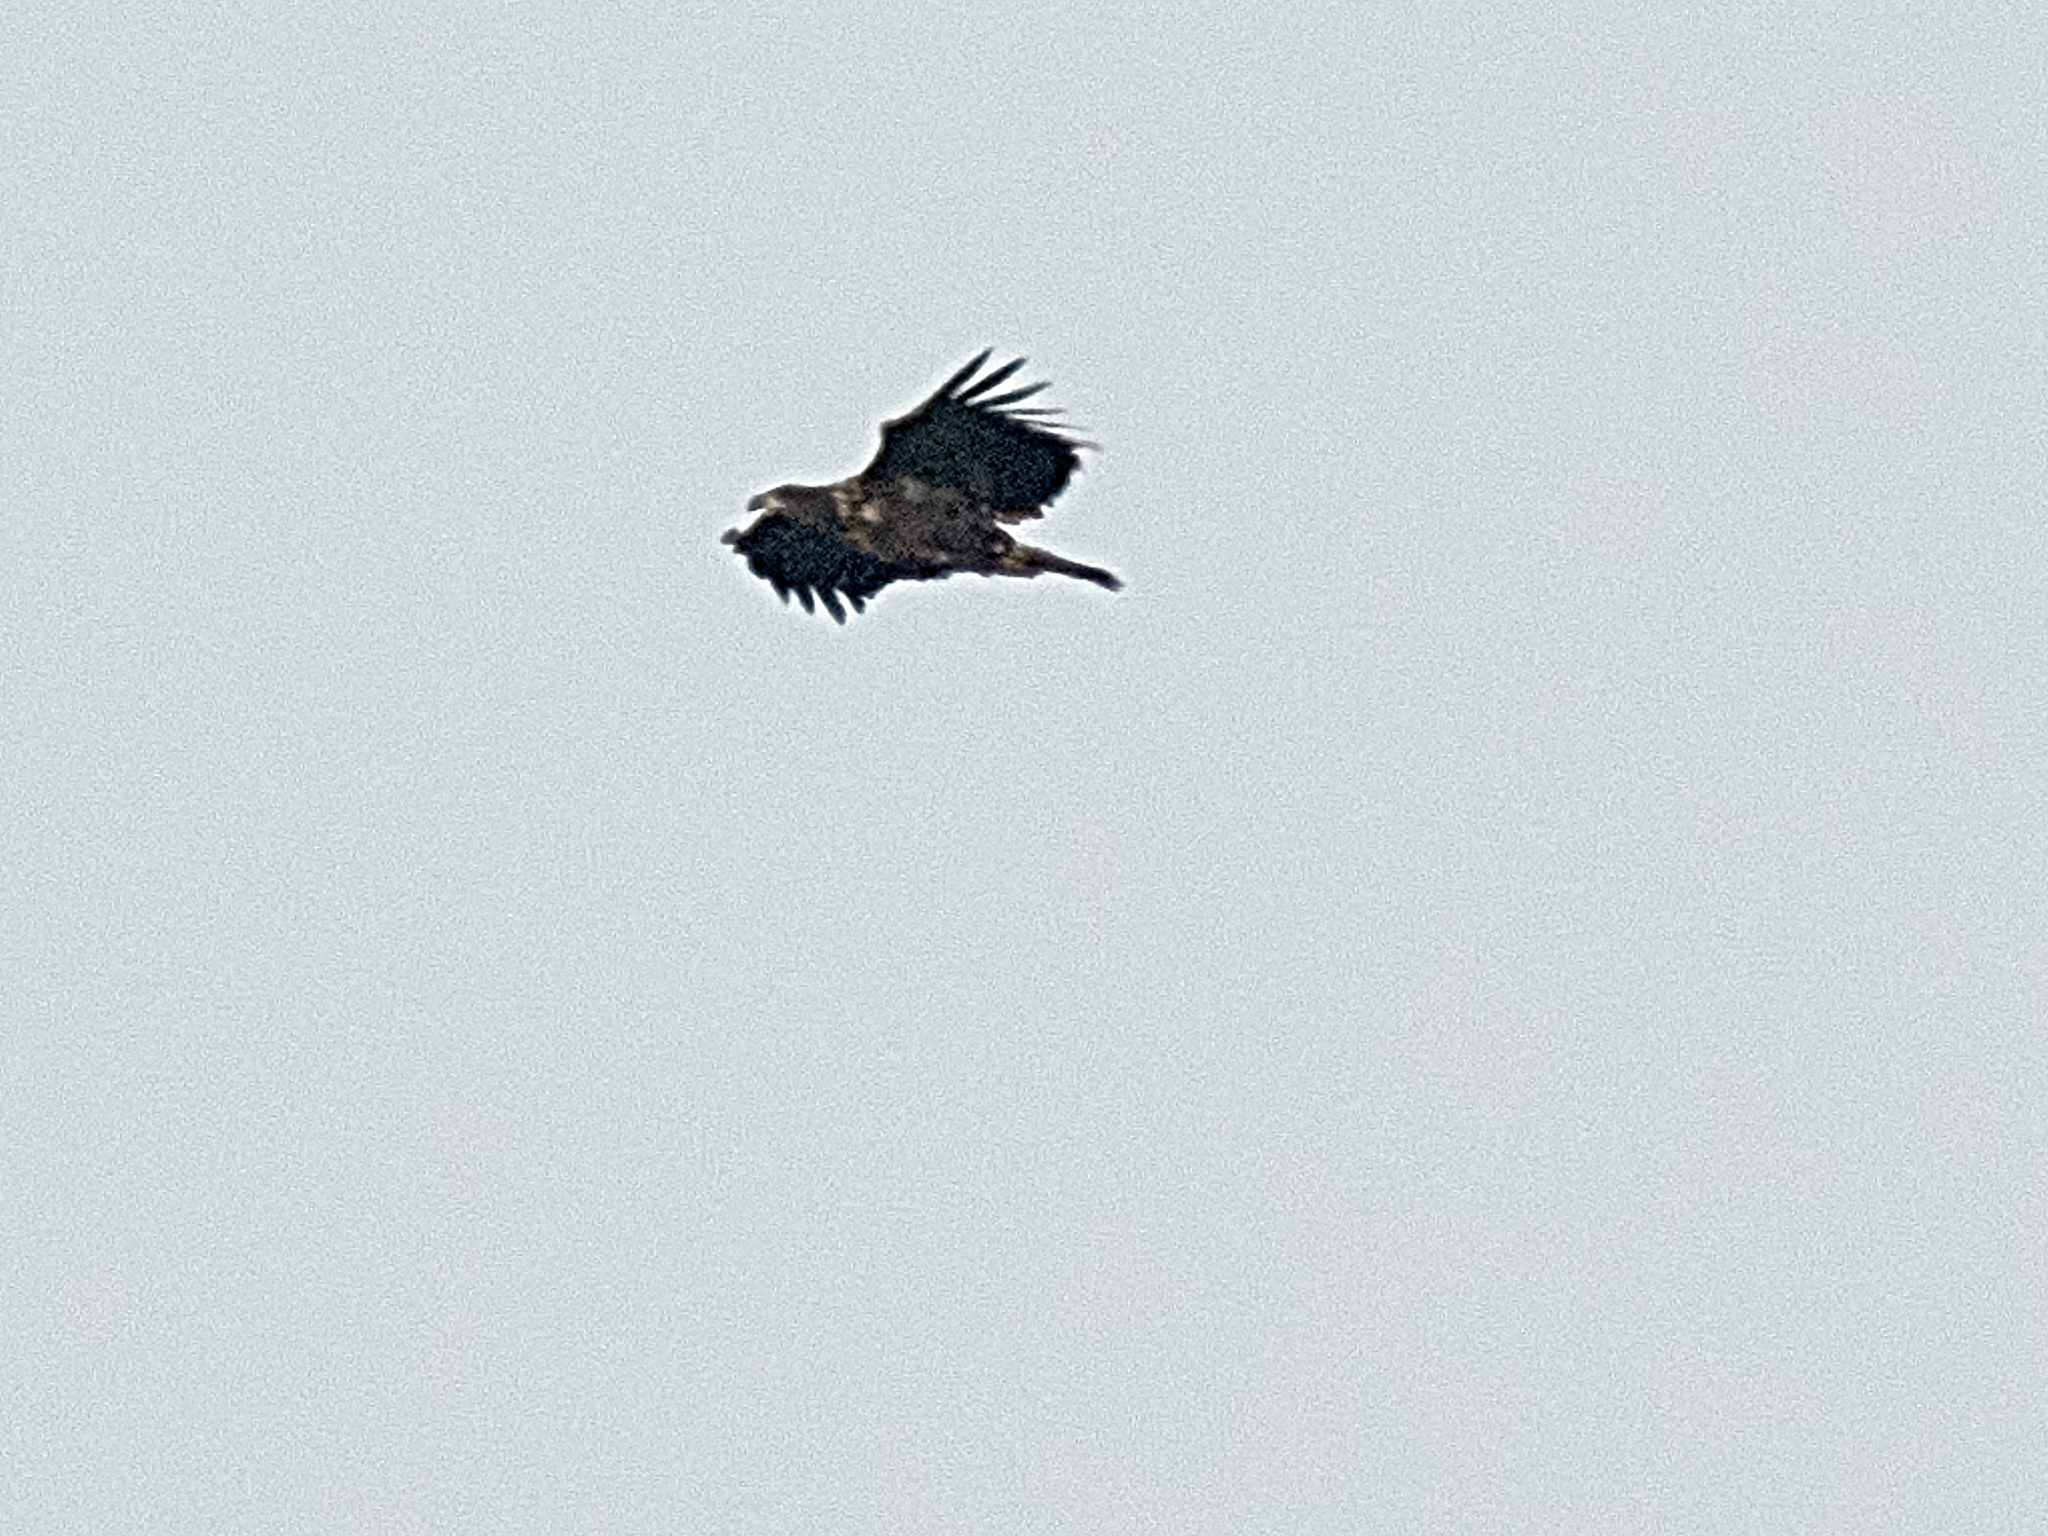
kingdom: Animalia
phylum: Chordata
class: Aves
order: Accipitriformes
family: Accipitridae
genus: Haliaeetus
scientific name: Haliaeetus albicilla
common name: White-tailed eagle
